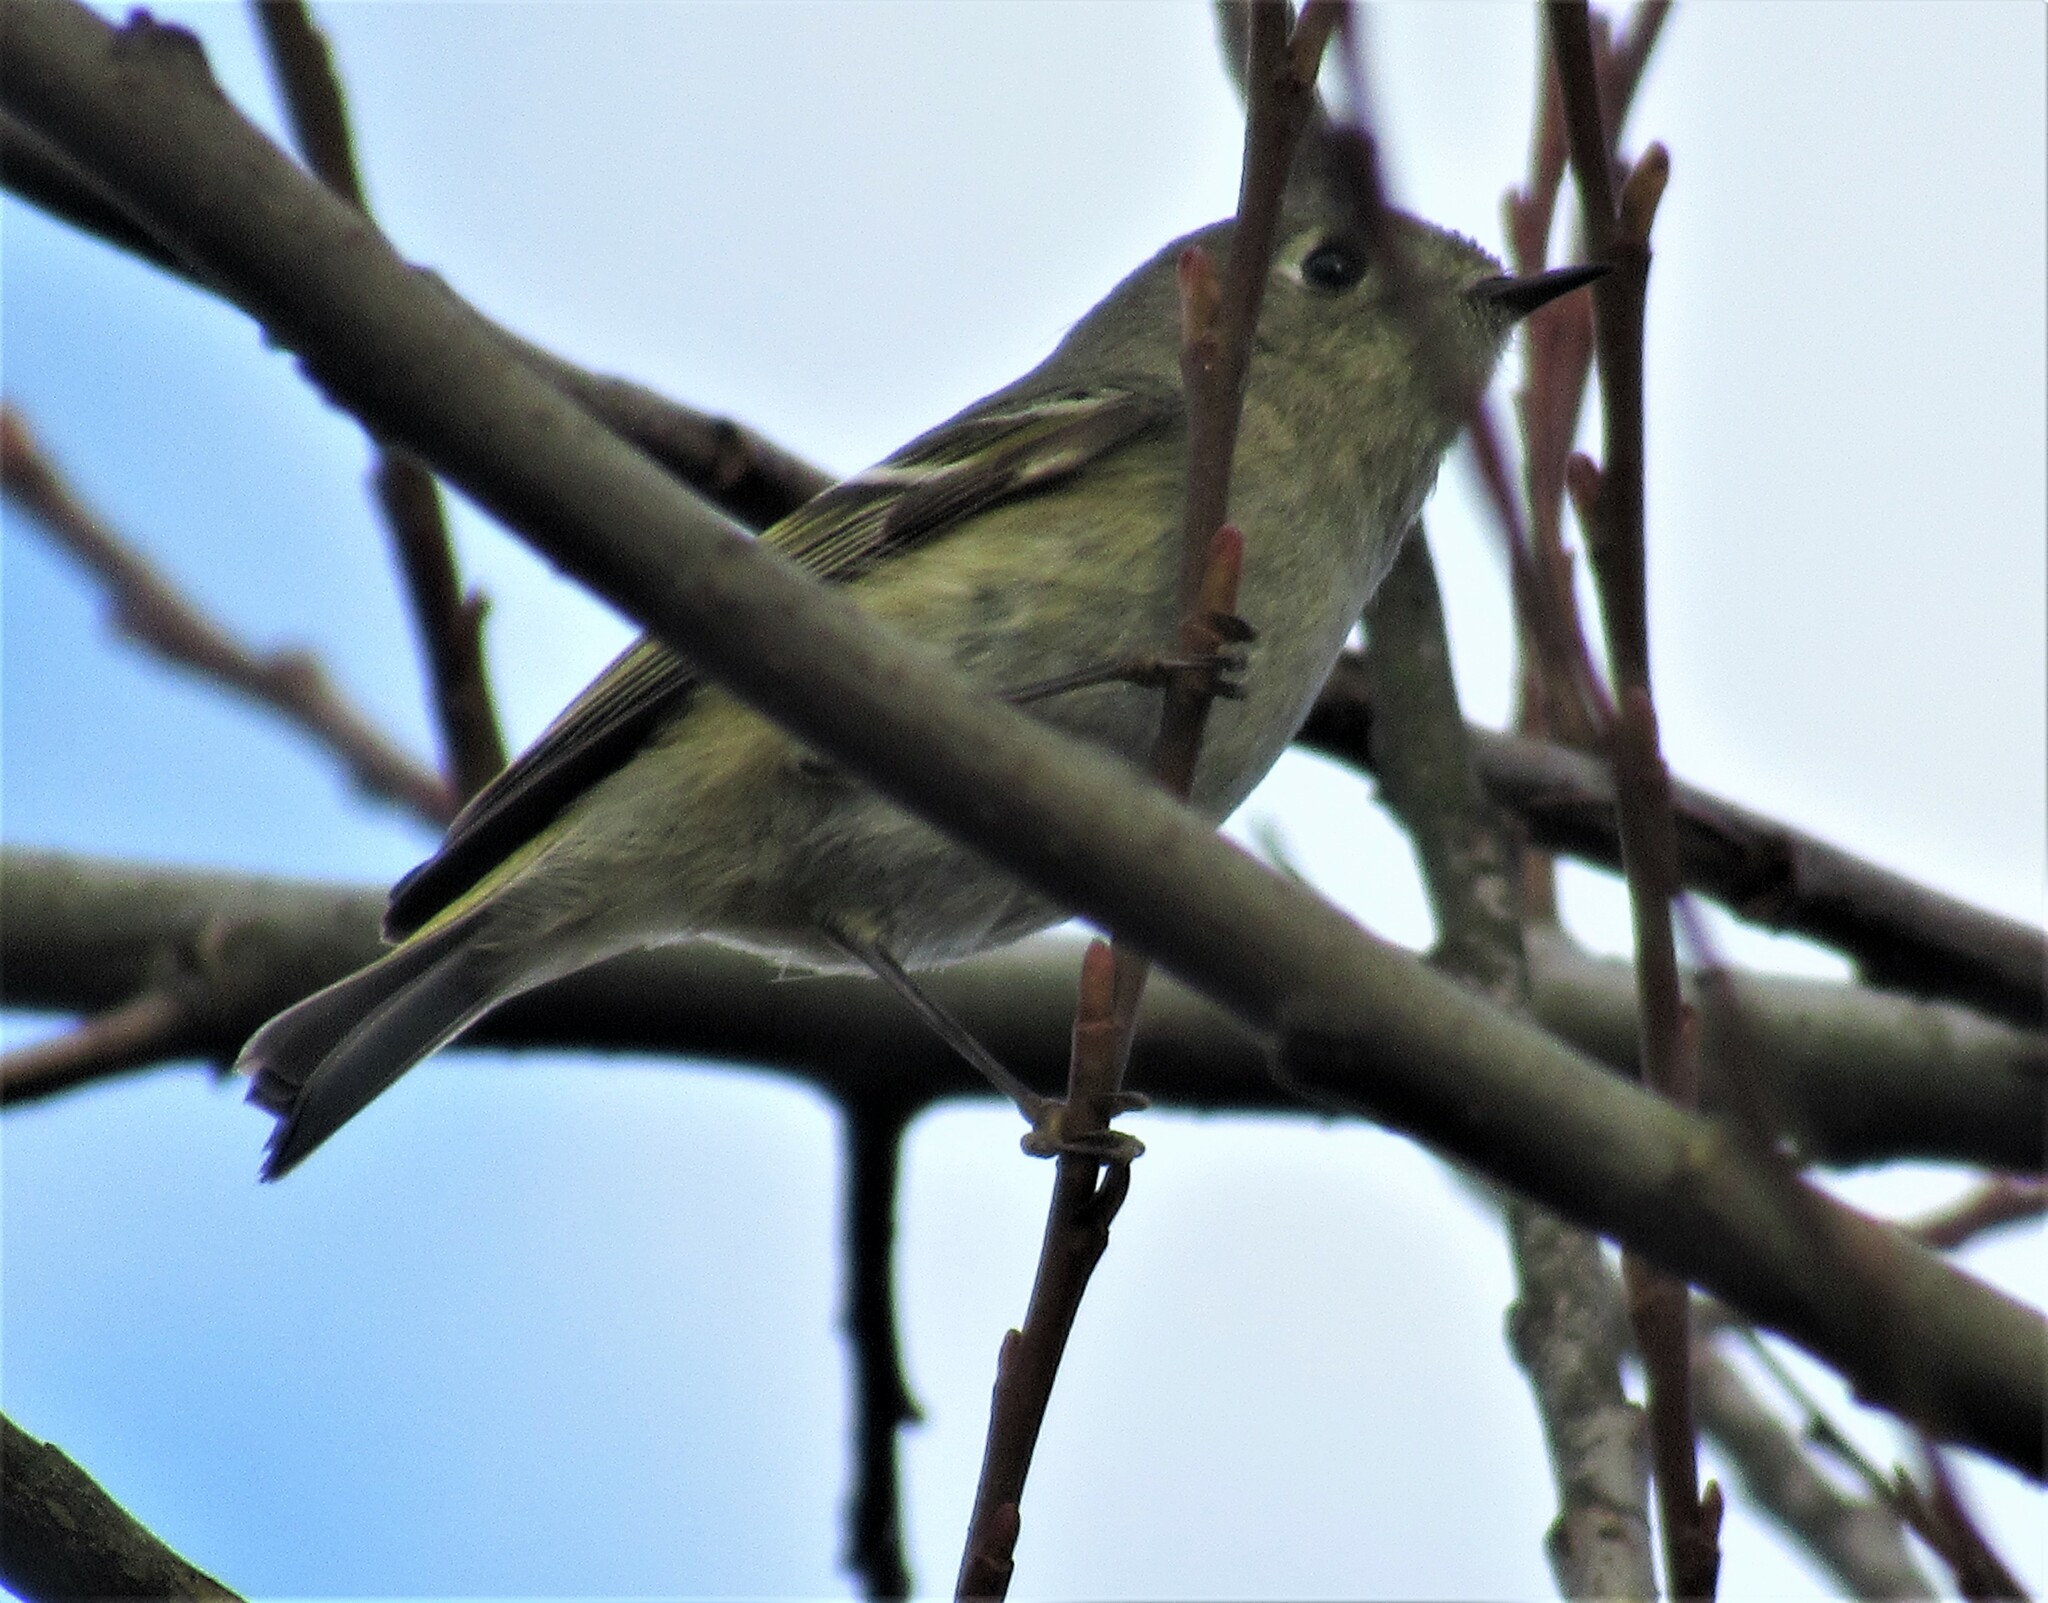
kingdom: Animalia
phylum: Chordata
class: Aves
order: Passeriformes
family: Regulidae
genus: Regulus
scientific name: Regulus calendula
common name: Ruby-crowned kinglet
